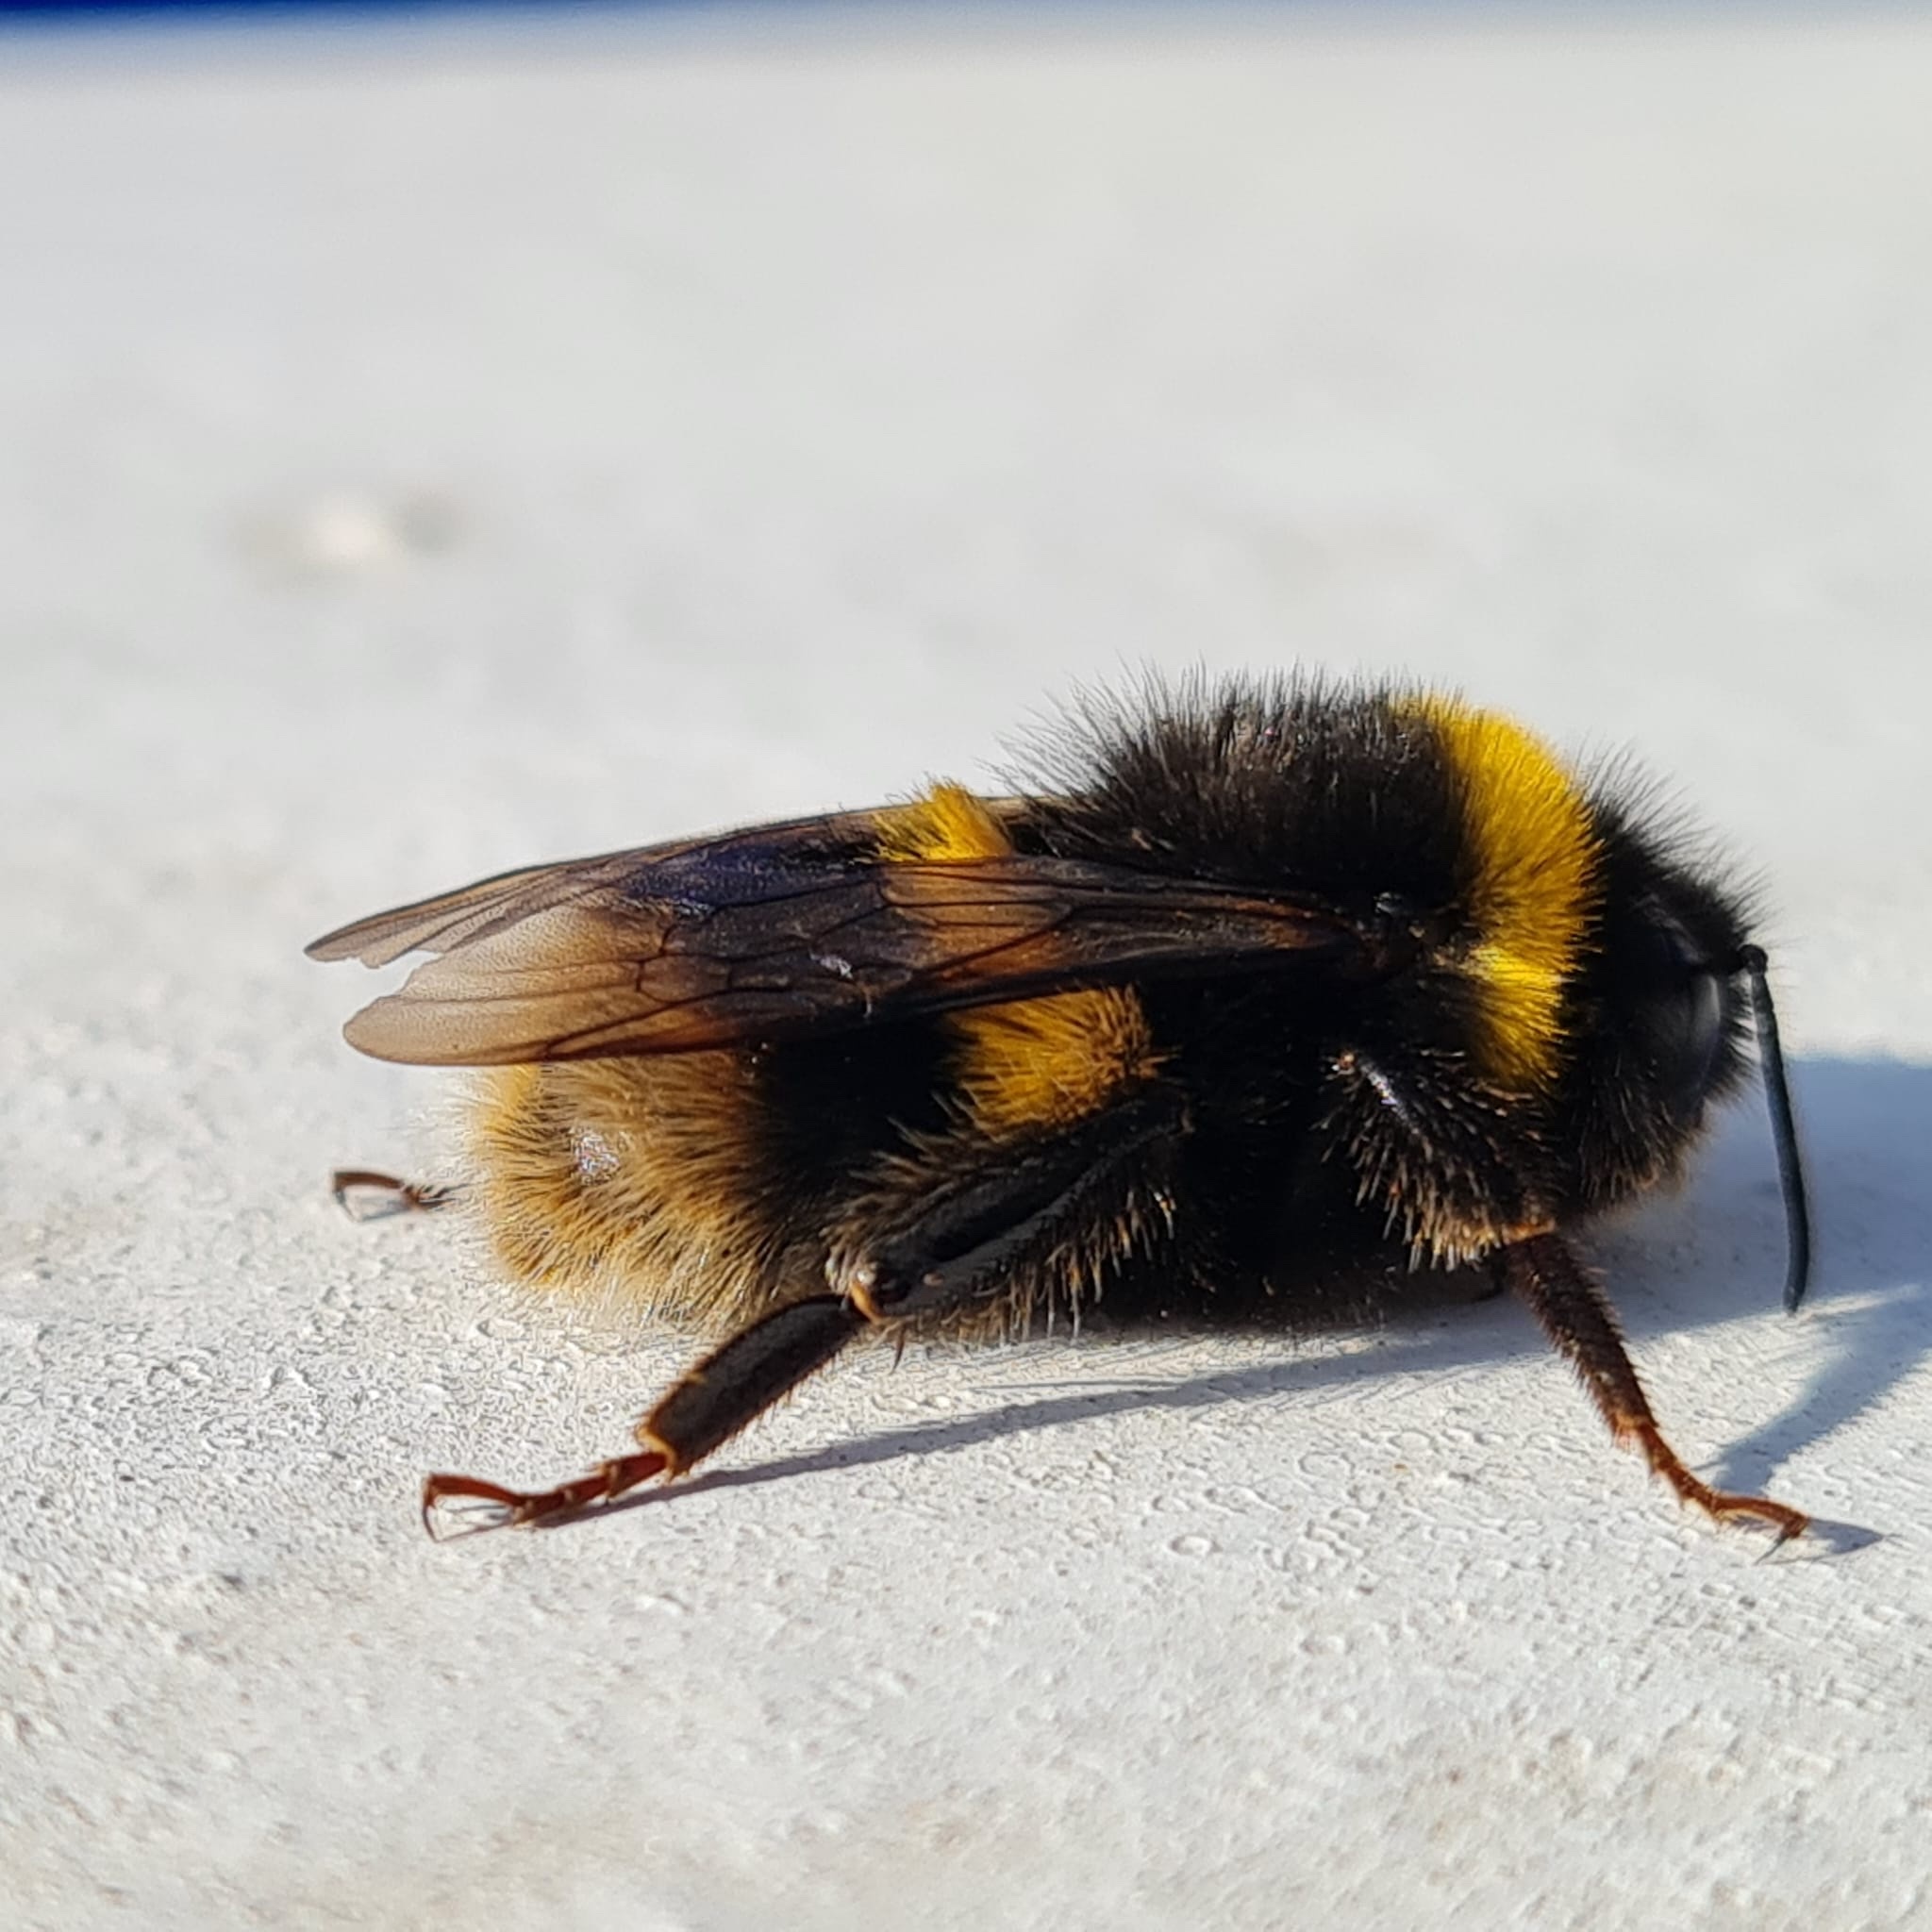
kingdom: Animalia
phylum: Arthropoda
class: Insecta
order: Hymenoptera
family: Apidae
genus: Bombus
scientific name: Bombus terrestris
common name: Buff-tailed bumblebee
